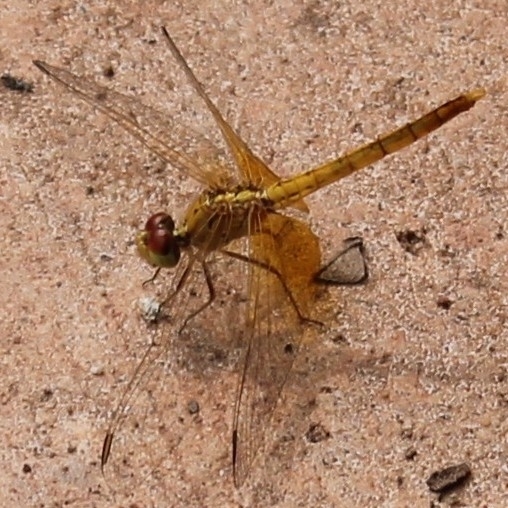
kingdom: Animalia
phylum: Arthropoda
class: Insecta
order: Odonata
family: Libellulidae
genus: Diplacodes
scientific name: Diplacodes haematodes
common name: Scarlet percher
